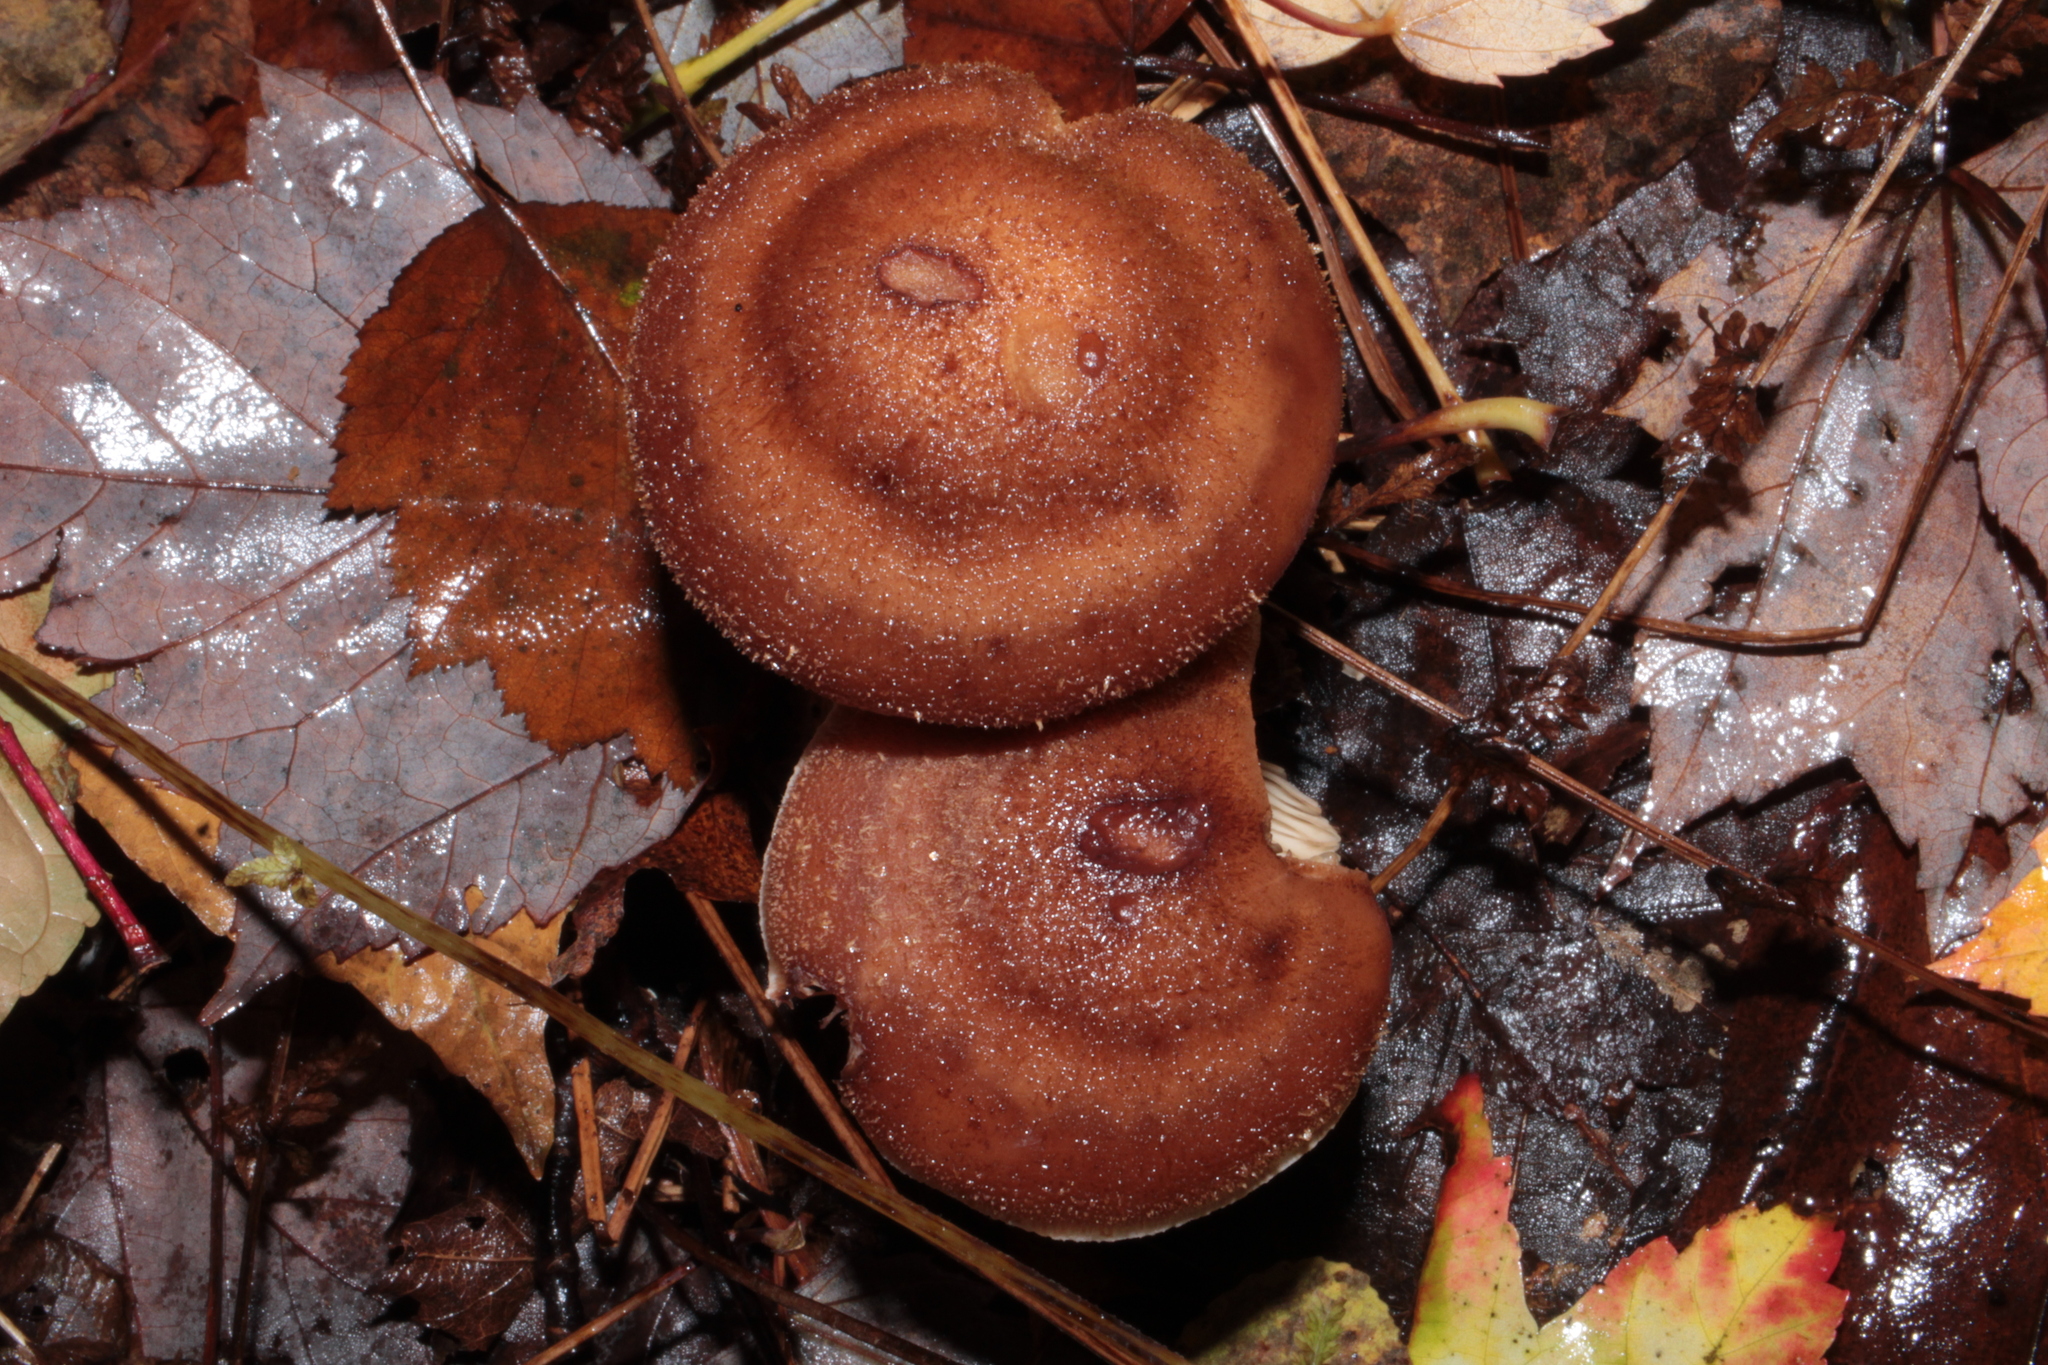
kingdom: Fungi
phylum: Basidiomycota
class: Agaricomycetes
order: Agaricales
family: Physalacriaceae
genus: Armillaria
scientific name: Armillaria gallica
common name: Bulbous honey fungus
